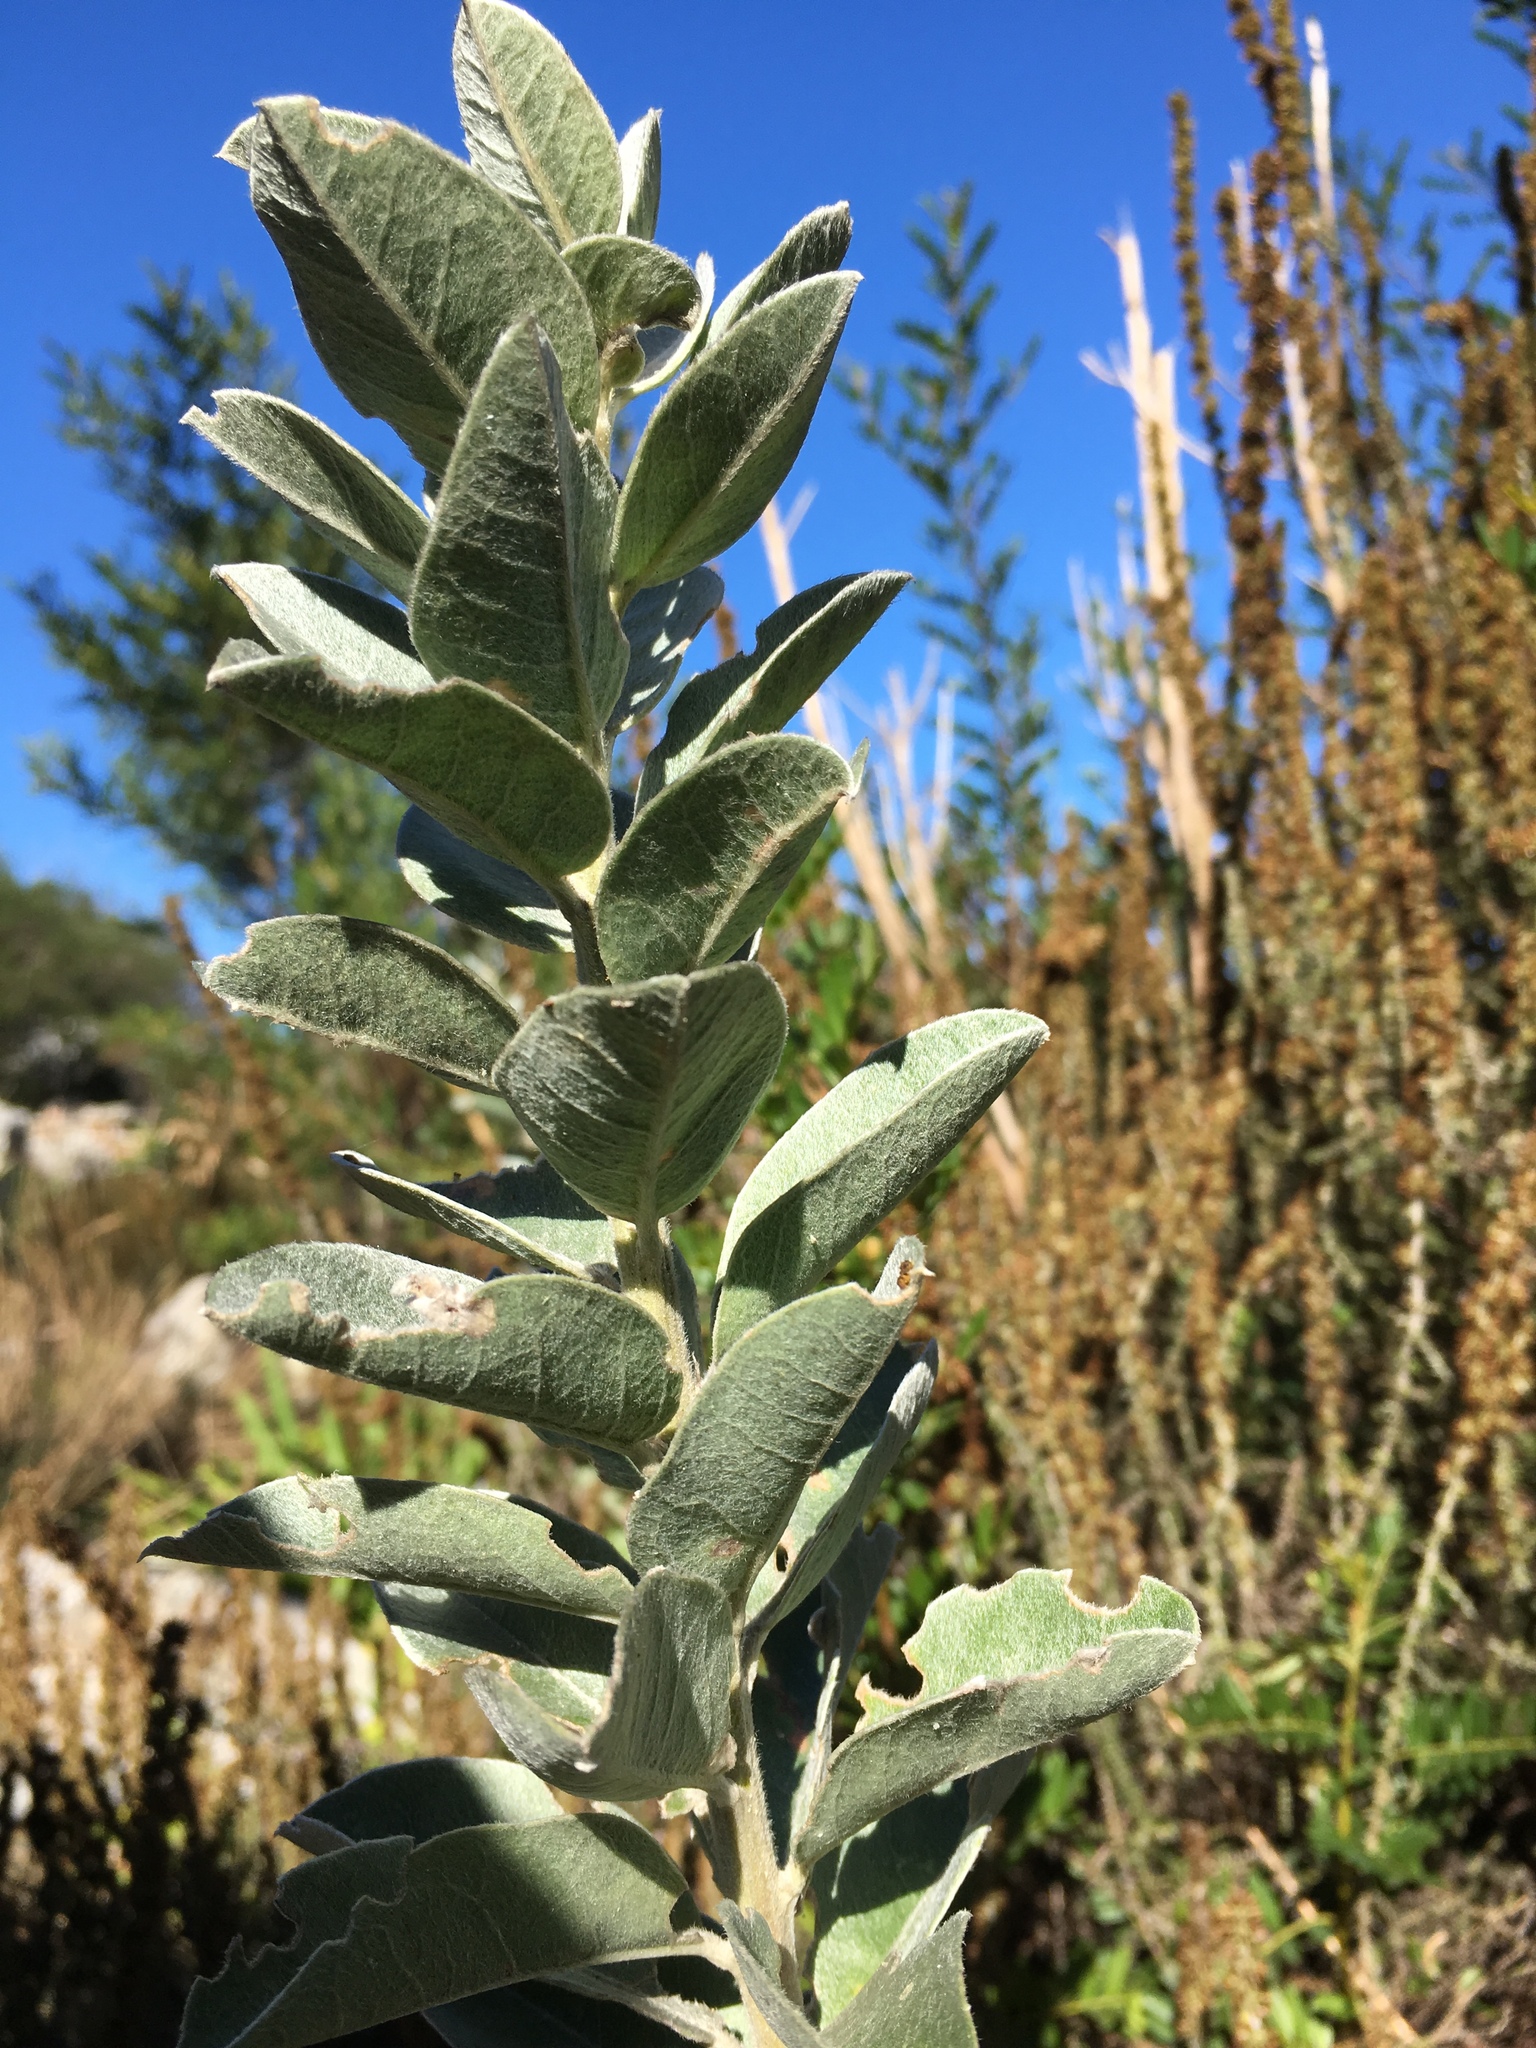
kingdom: Plantae
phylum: Tracheophyta
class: Magnoliopsida
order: Asterales
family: Asteraceae
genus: Tarchonanthus
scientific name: Tarchonanthus littoralis
